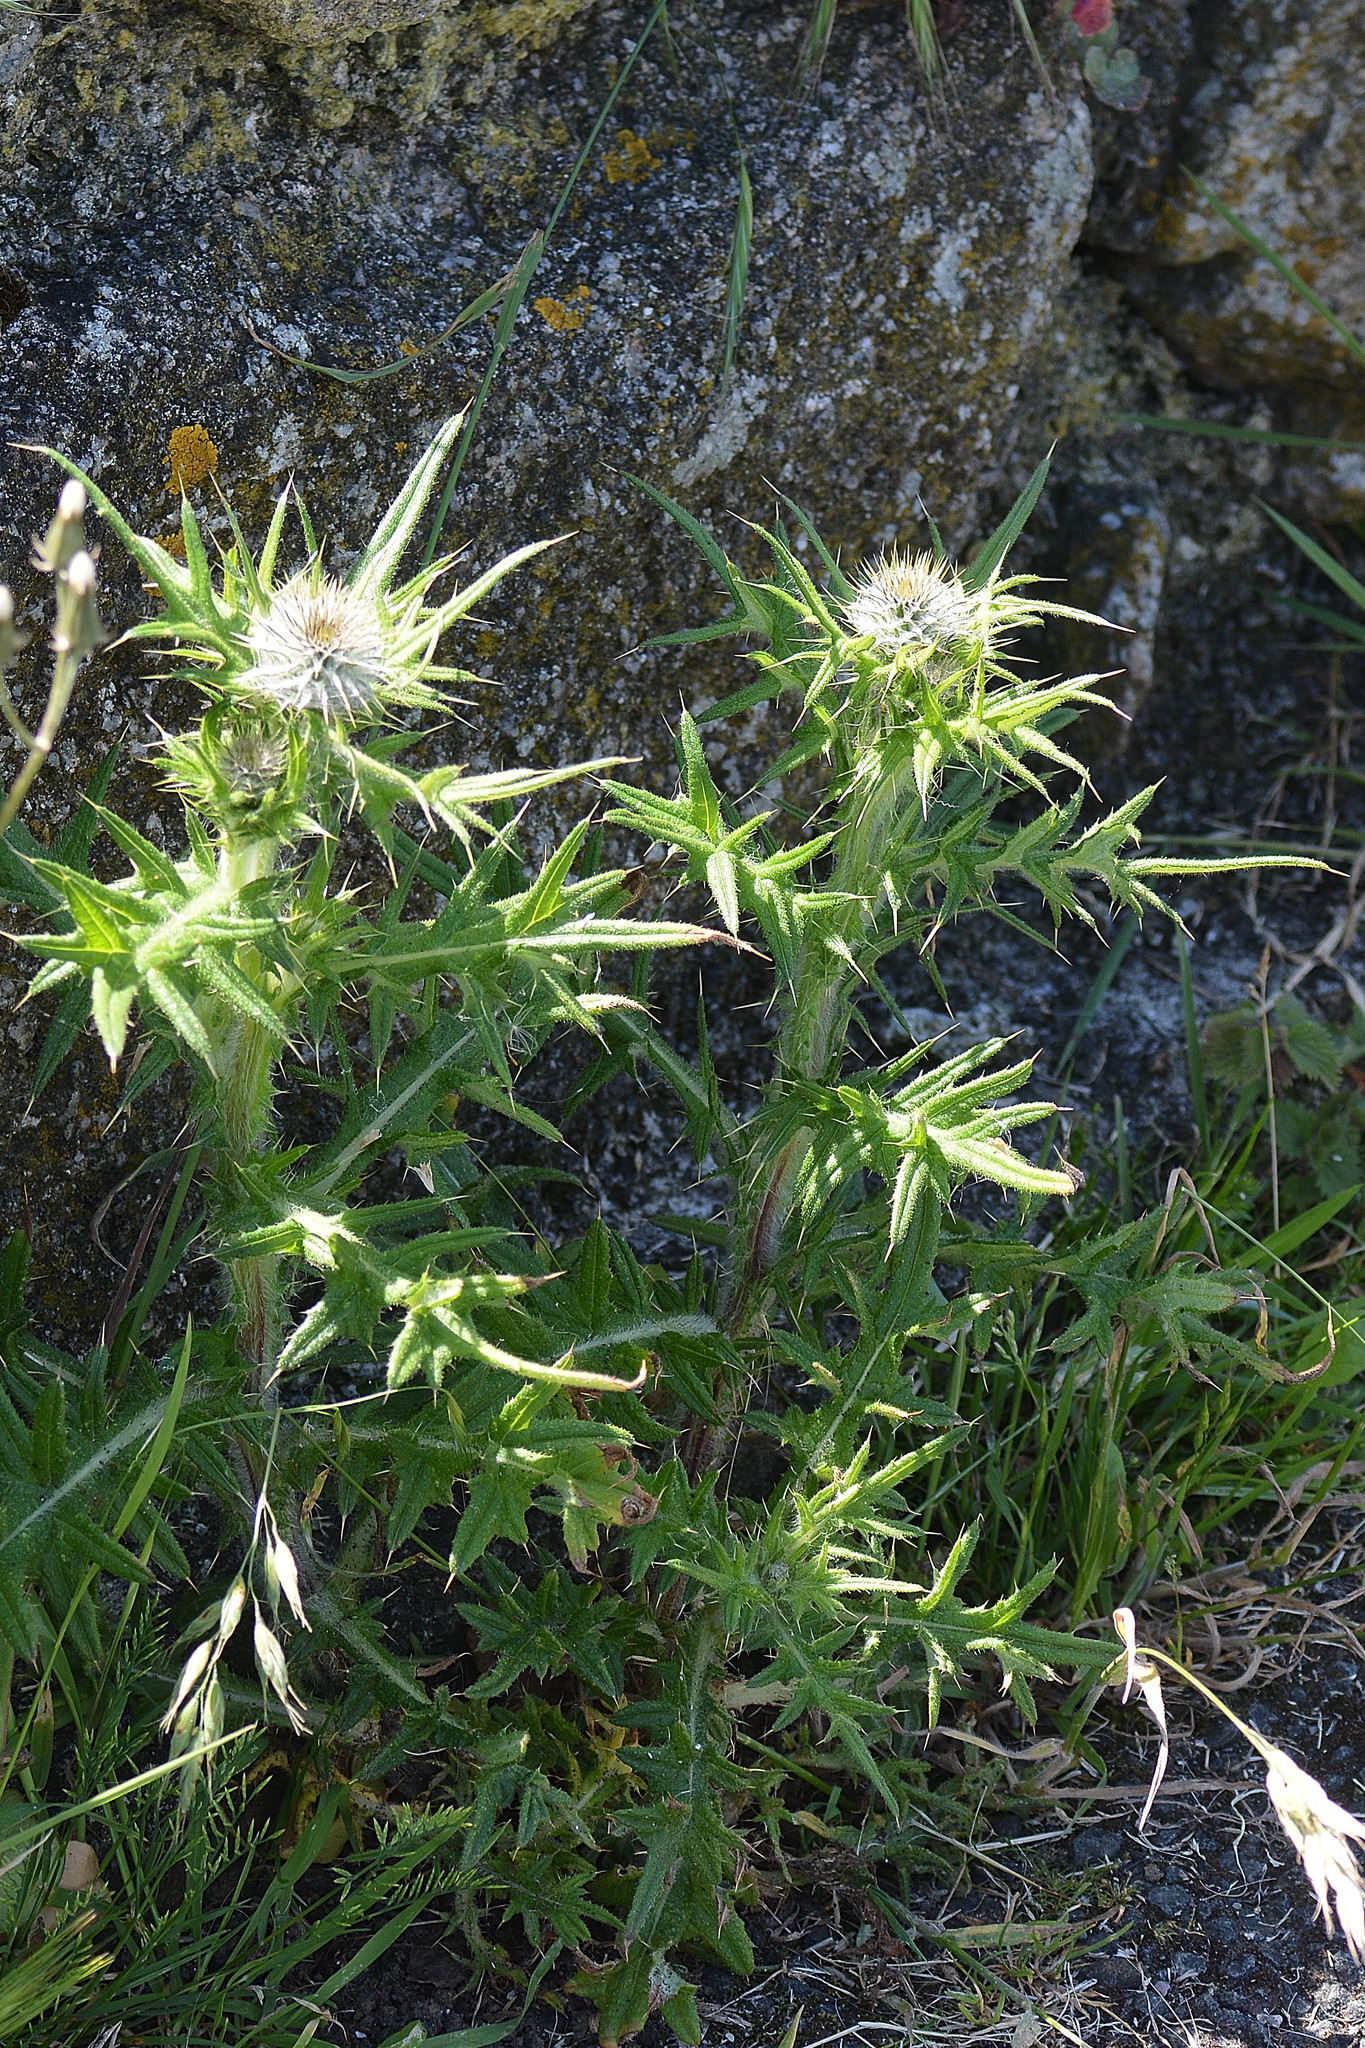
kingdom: Plantae
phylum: Tracheophyta
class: Magnoliopsida
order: Asterales
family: Asteraceae
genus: Cirsium
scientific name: Cirsium vulgare
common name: Bull thistle
